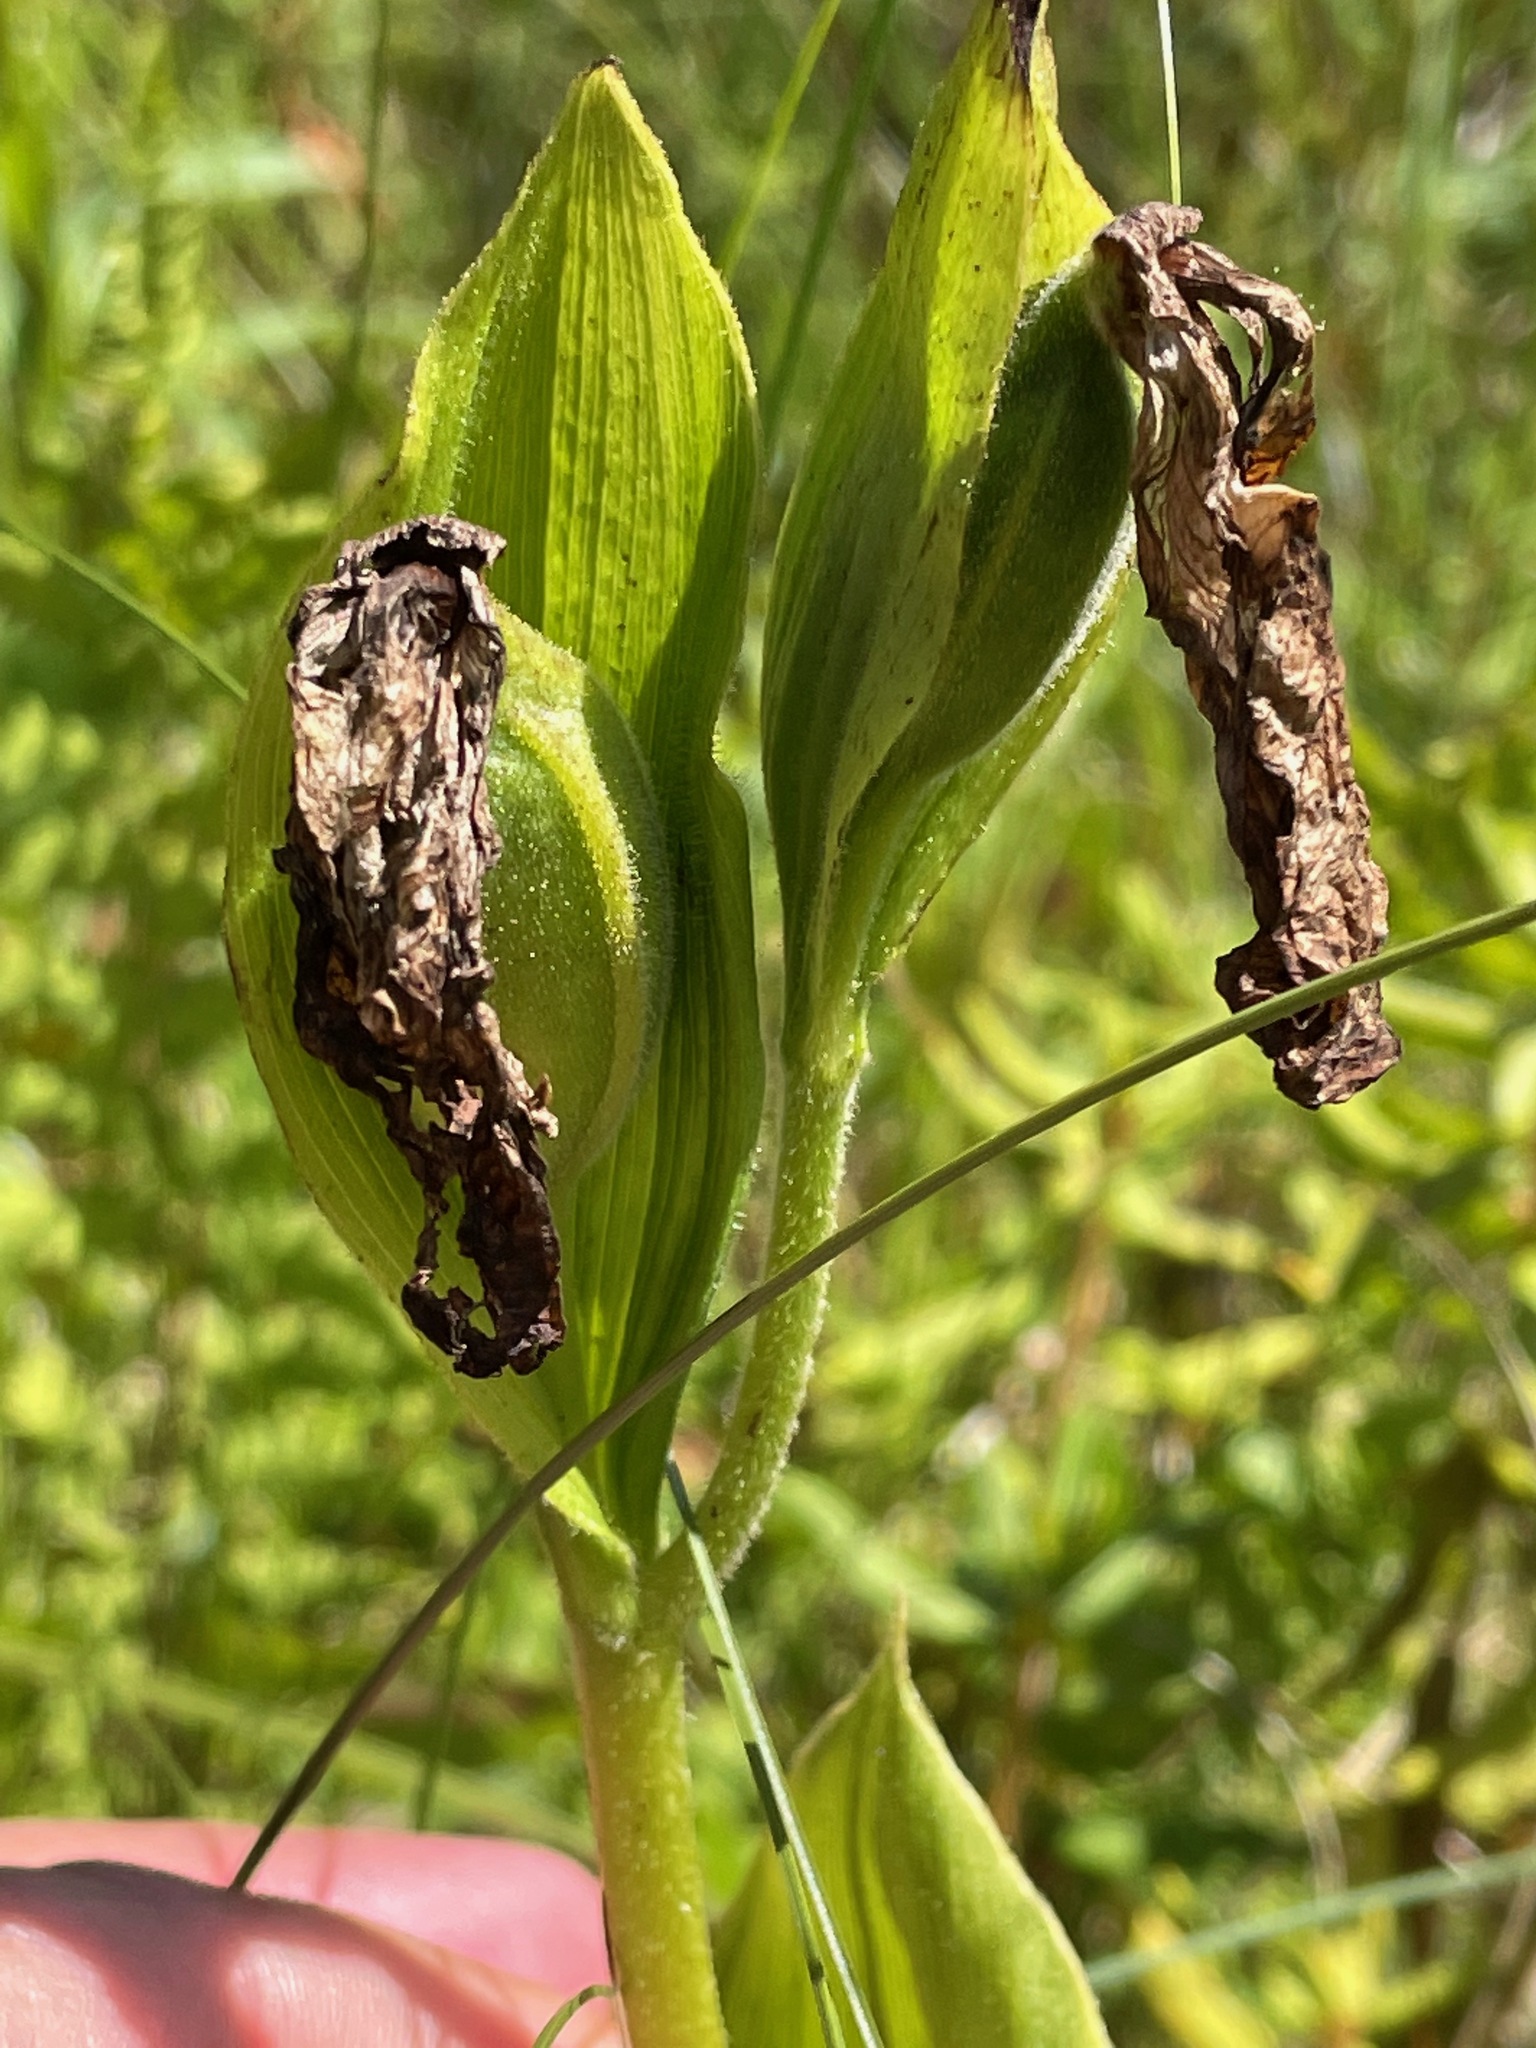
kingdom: Plantae
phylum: Tracheophyta
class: Liliopsida
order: Asparagales
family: Orchidaceae
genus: Cypripedium
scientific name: Cypripedium reginae
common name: Queen lady's-slipper
